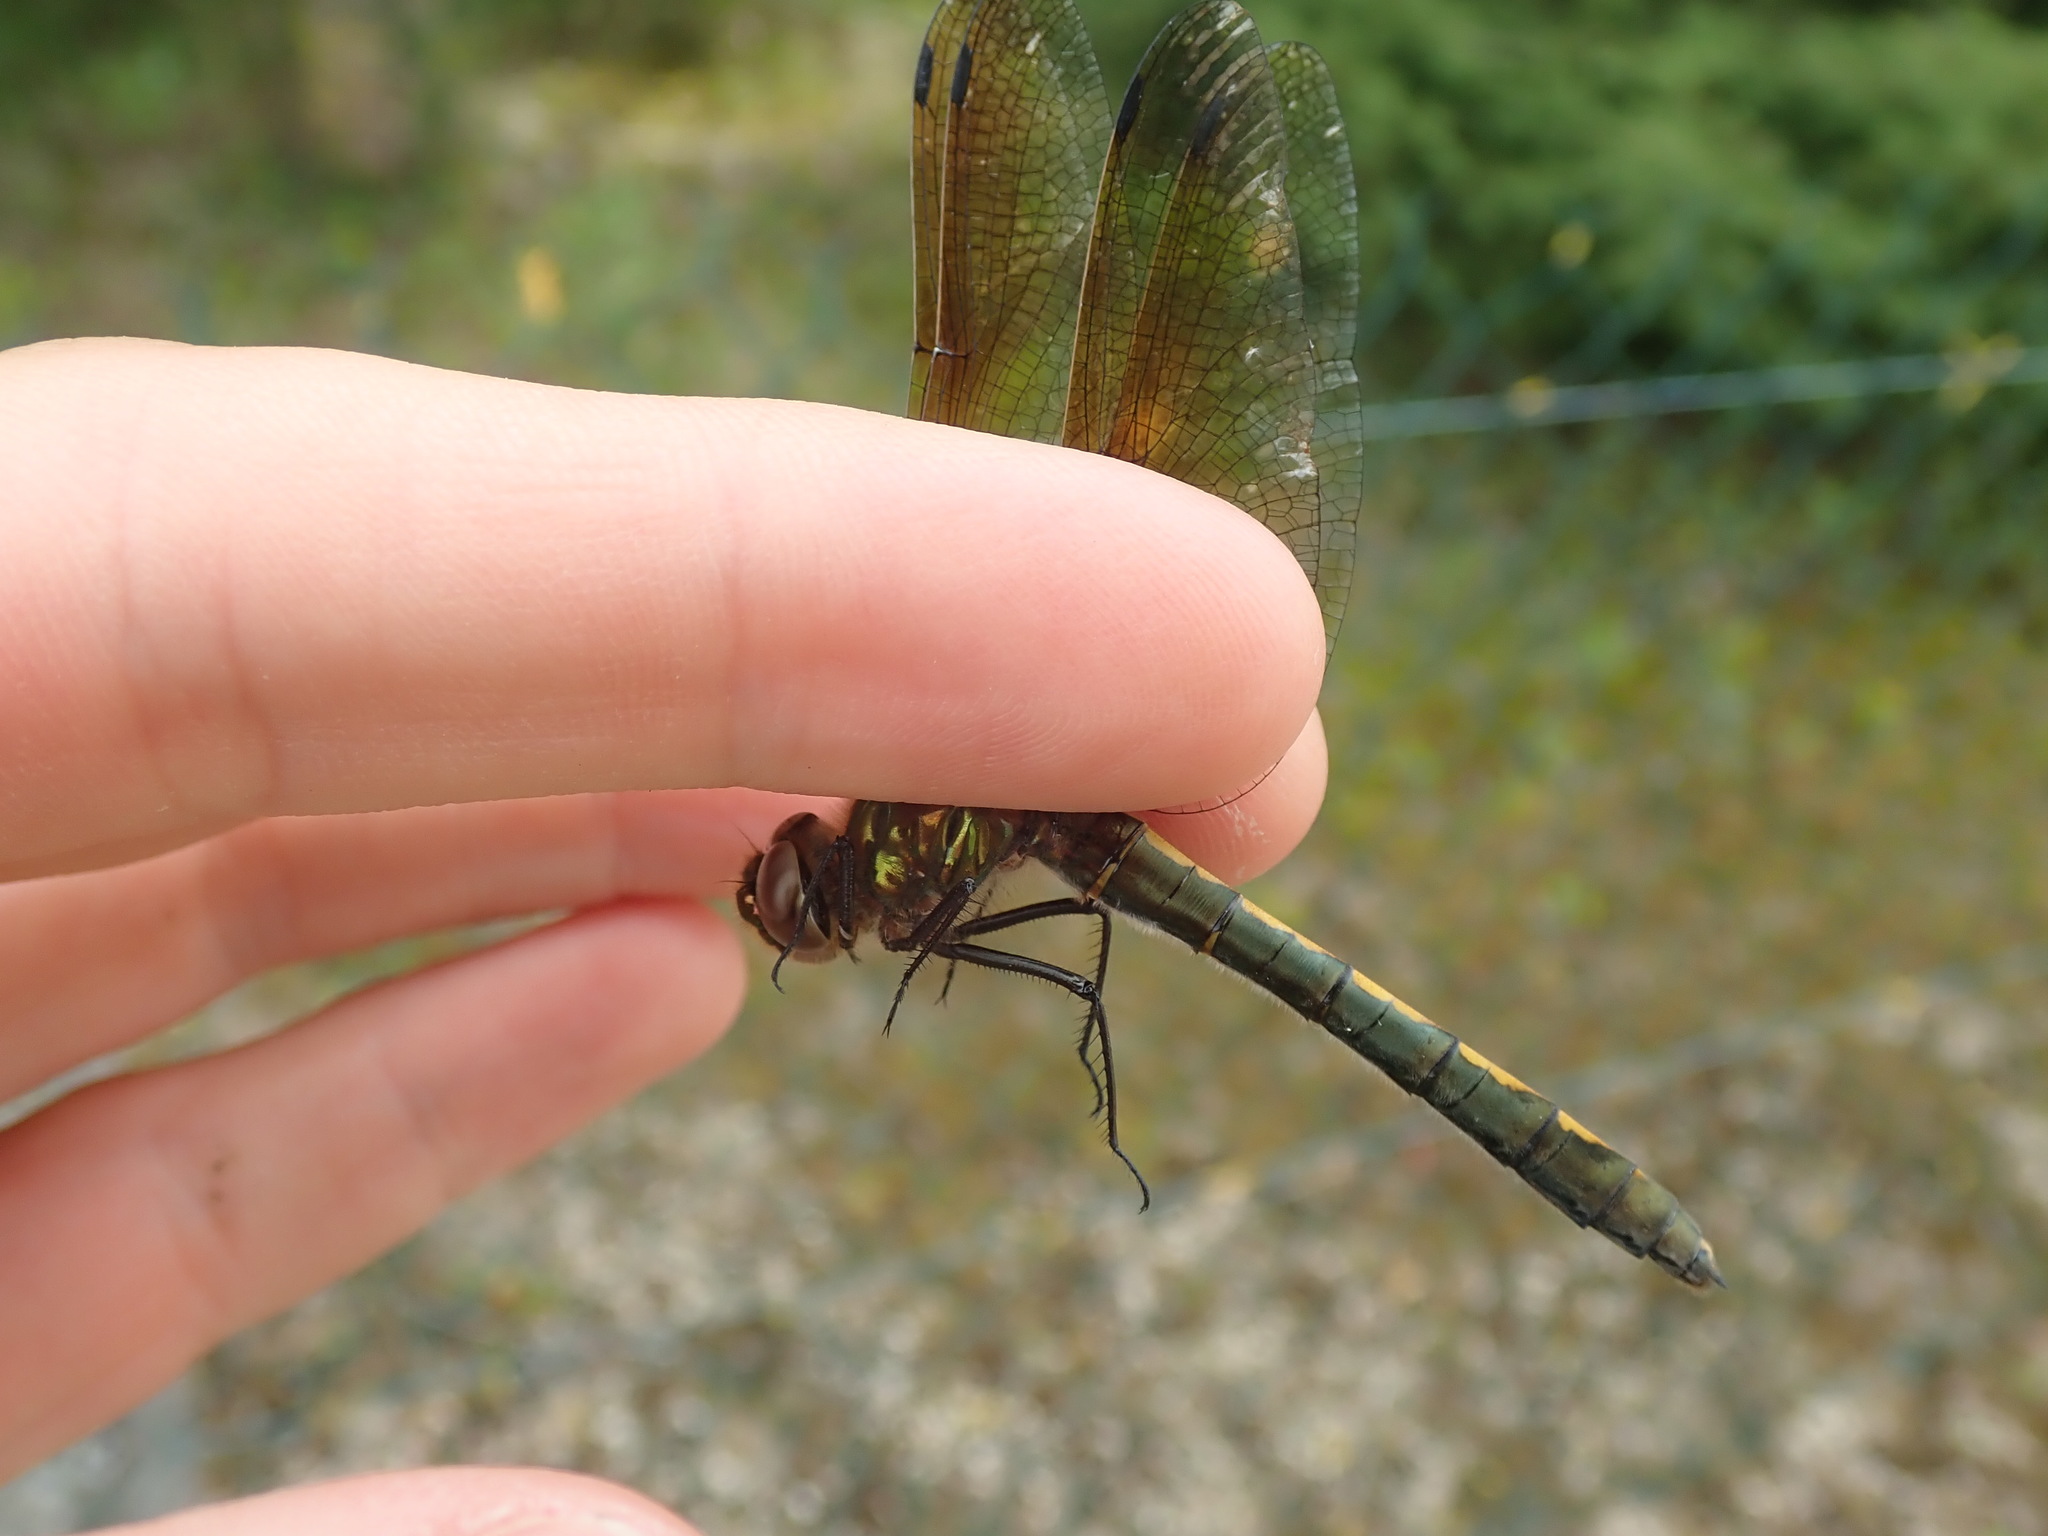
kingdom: Animalia
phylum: Arthropoda
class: Insecta
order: Odonata
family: Corduliidae
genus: Oxygastra
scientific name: Oxygastra curtisii
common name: Orange-spotted emerald
